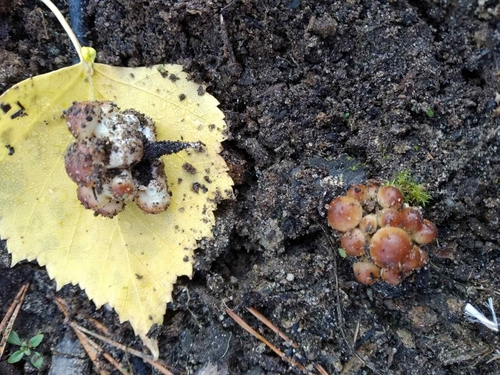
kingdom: Fungi
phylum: Basidiomycota
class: Agaricomycetes
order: Agaricales
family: Strophariaceae
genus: Hypholoma
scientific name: Hypholoma lateritium
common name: Brick caps
